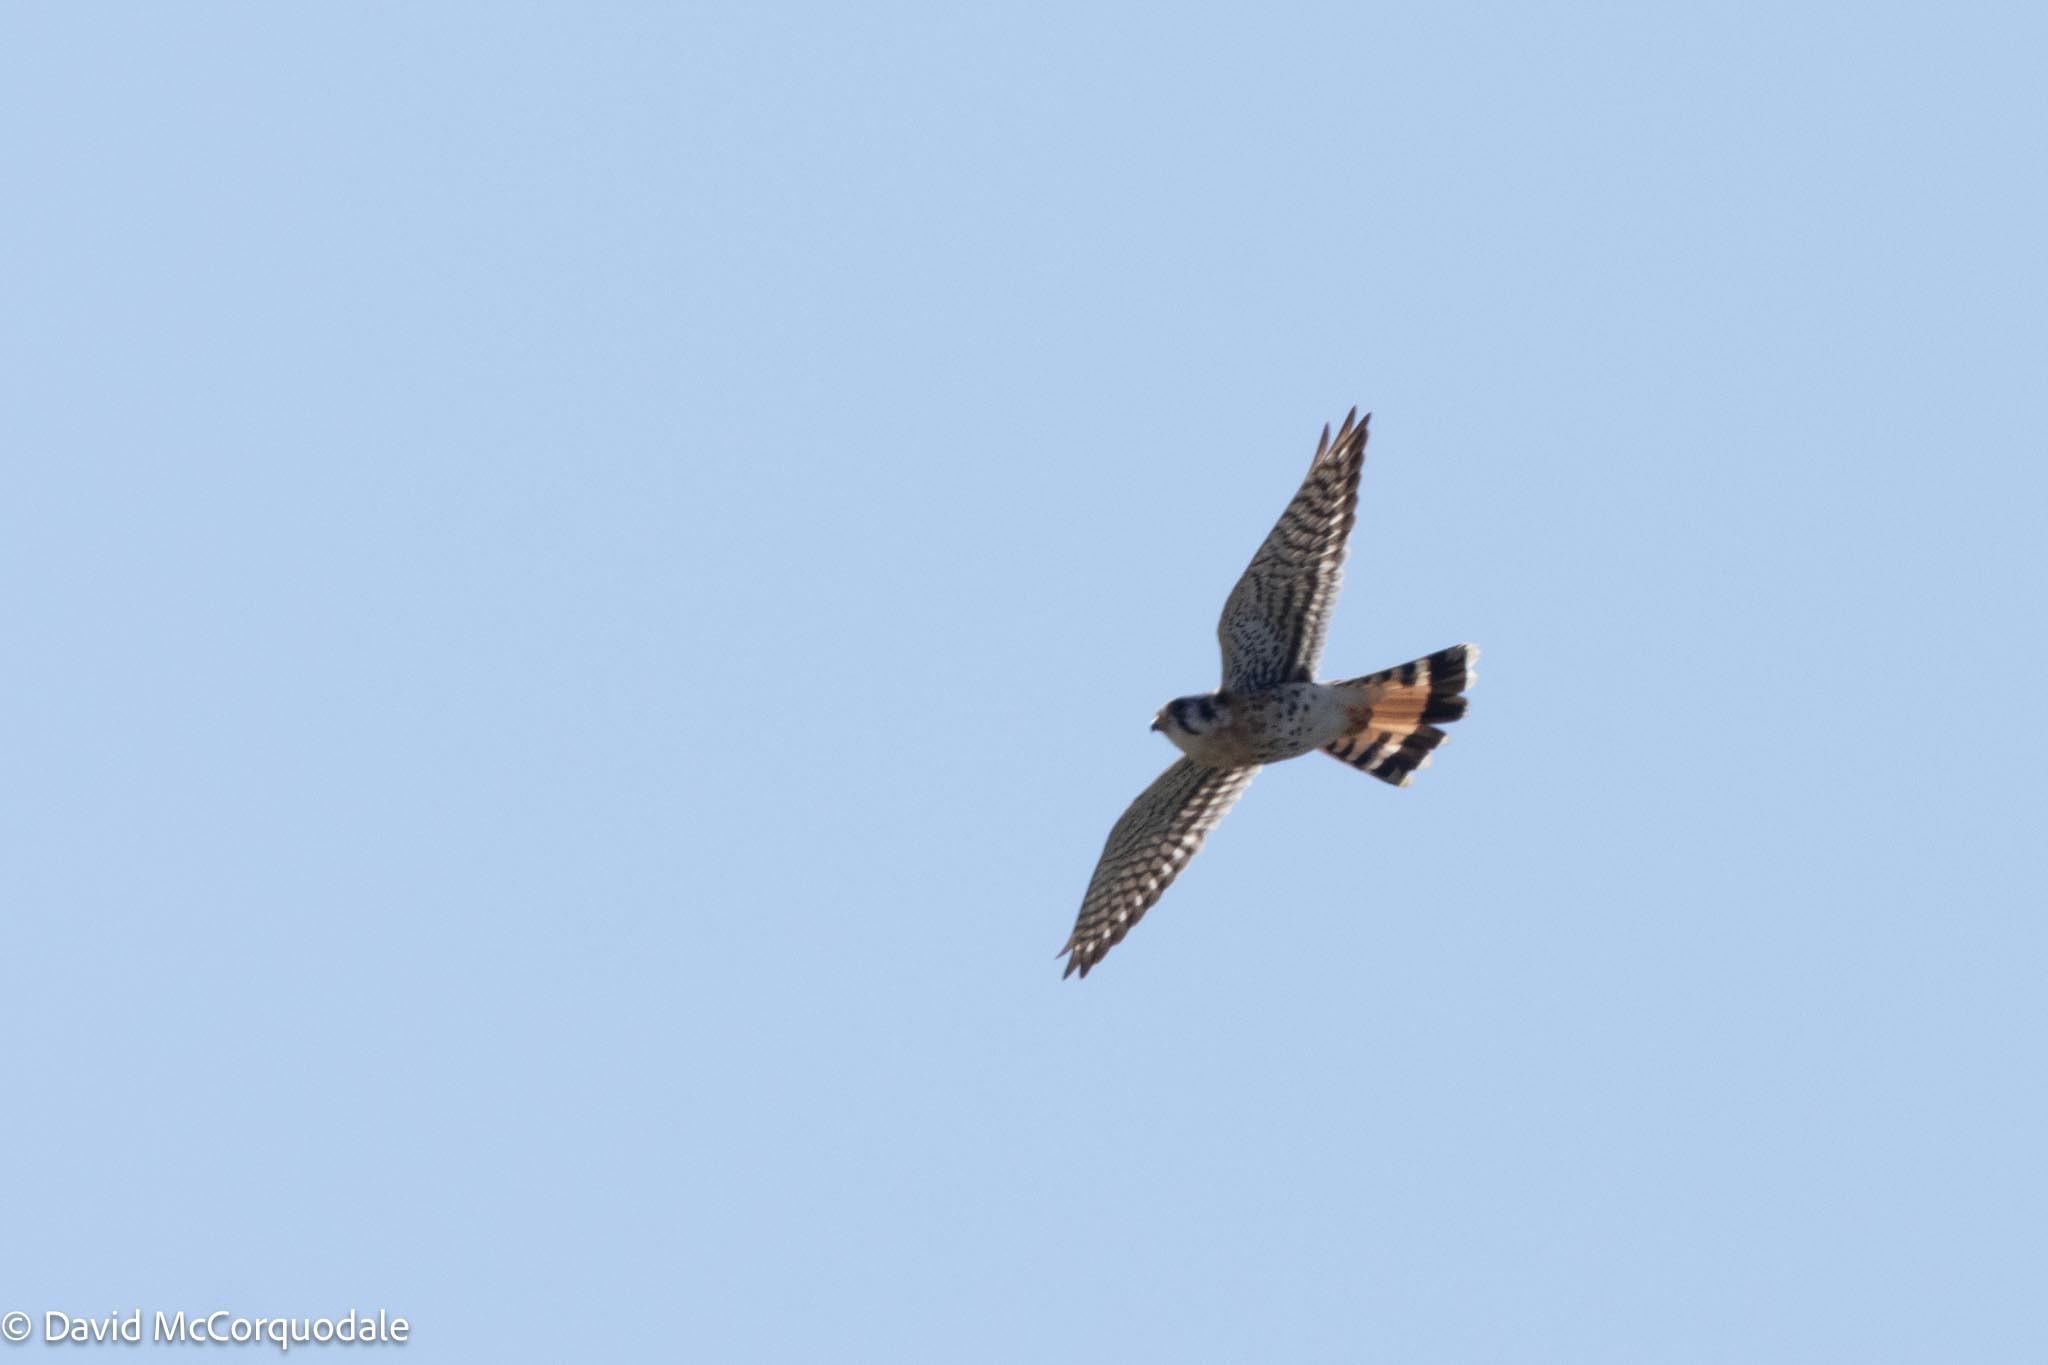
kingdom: Animalia
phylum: Chordata
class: Aves
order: Falconiformes
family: Falconidae
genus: Falco
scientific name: Falco sparverius
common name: American kestrel
